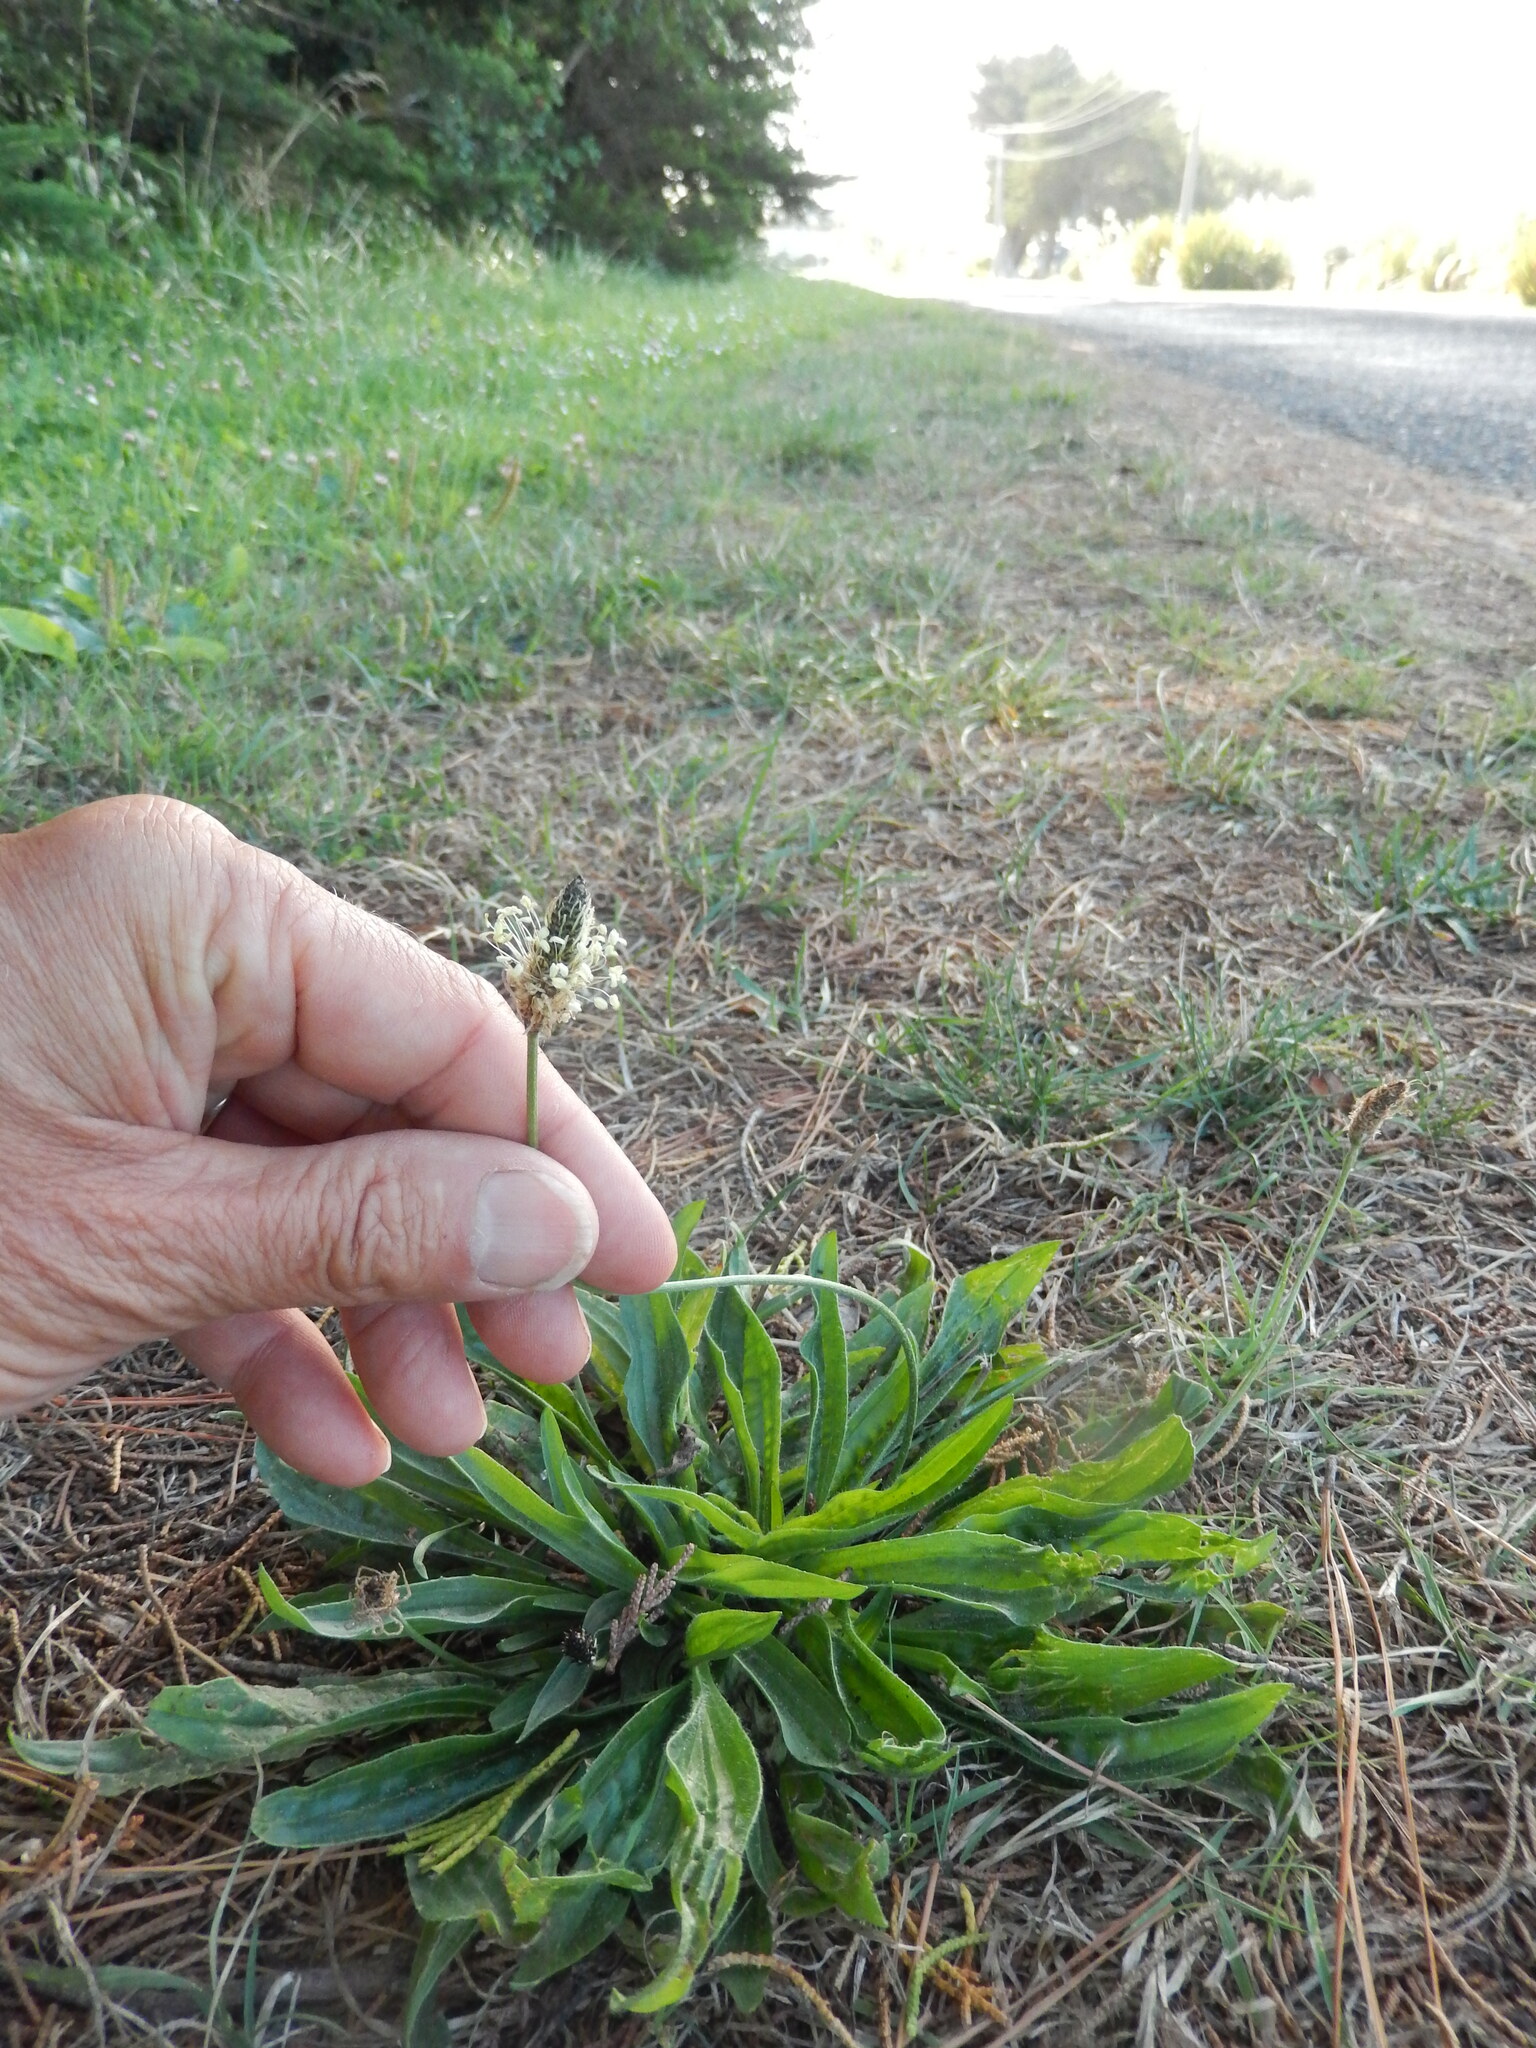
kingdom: Plantae
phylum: Tracheophyta
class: Magnoliopsida
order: Lamiales
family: Plantaginaceae
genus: Plantago
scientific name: Plantago lanceolata
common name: Ribwort plantain
